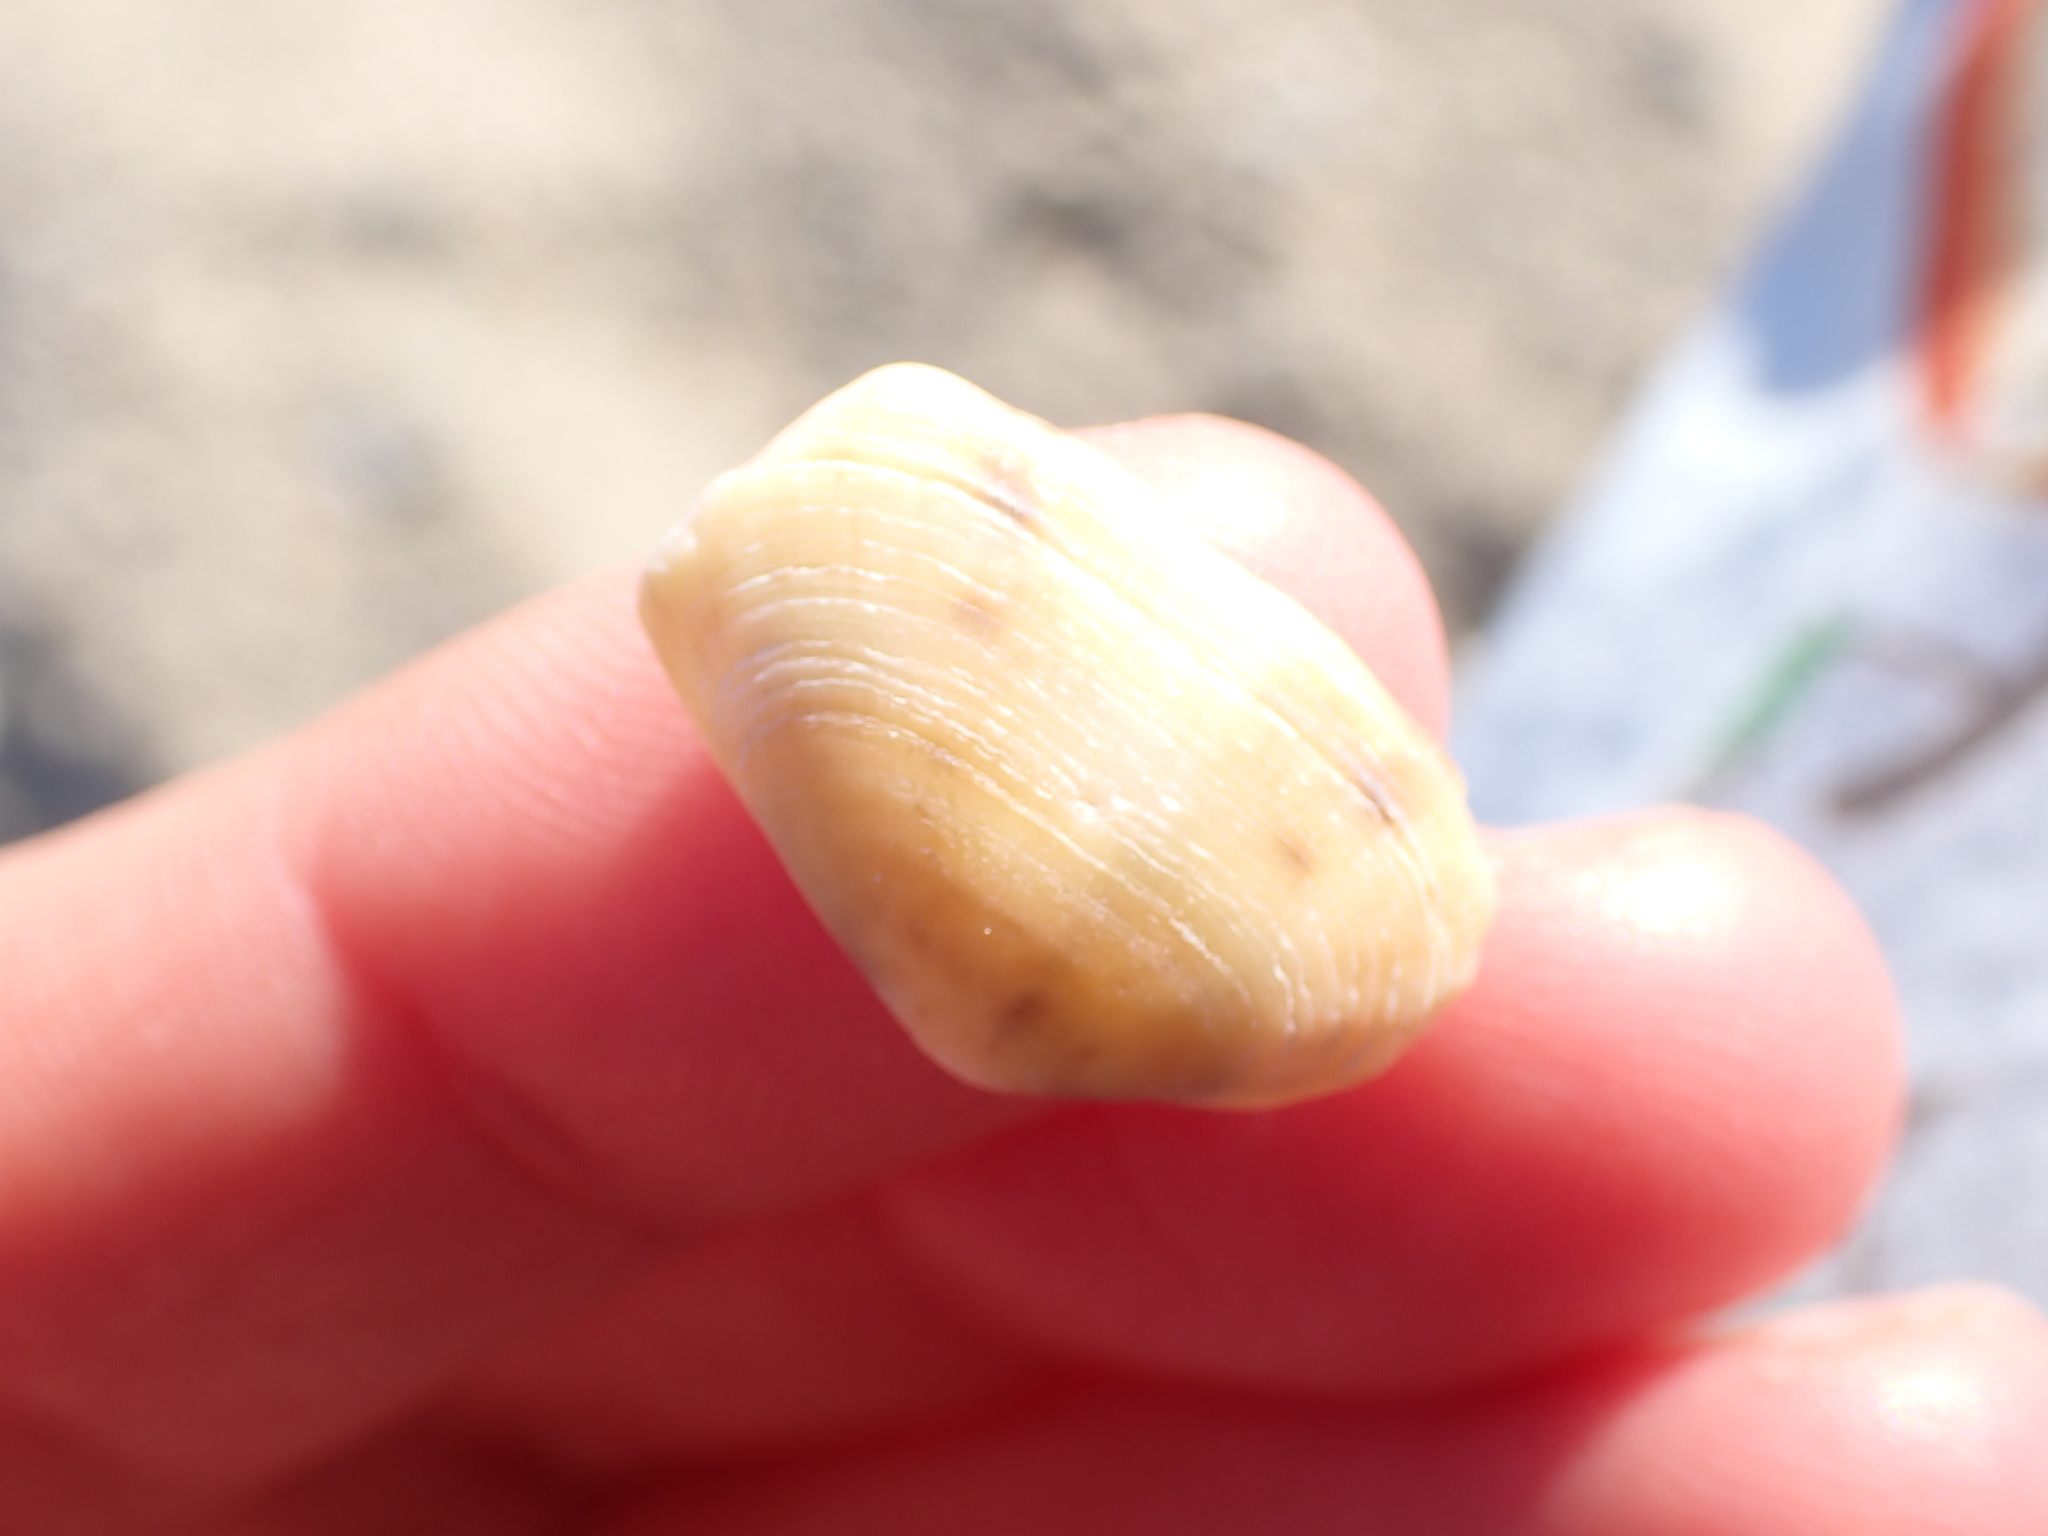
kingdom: Animalia
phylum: Mollusca
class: Bivalvia
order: Venerida
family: Mesodesmatidae
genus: Donacilla
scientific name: Donacilla cornea
